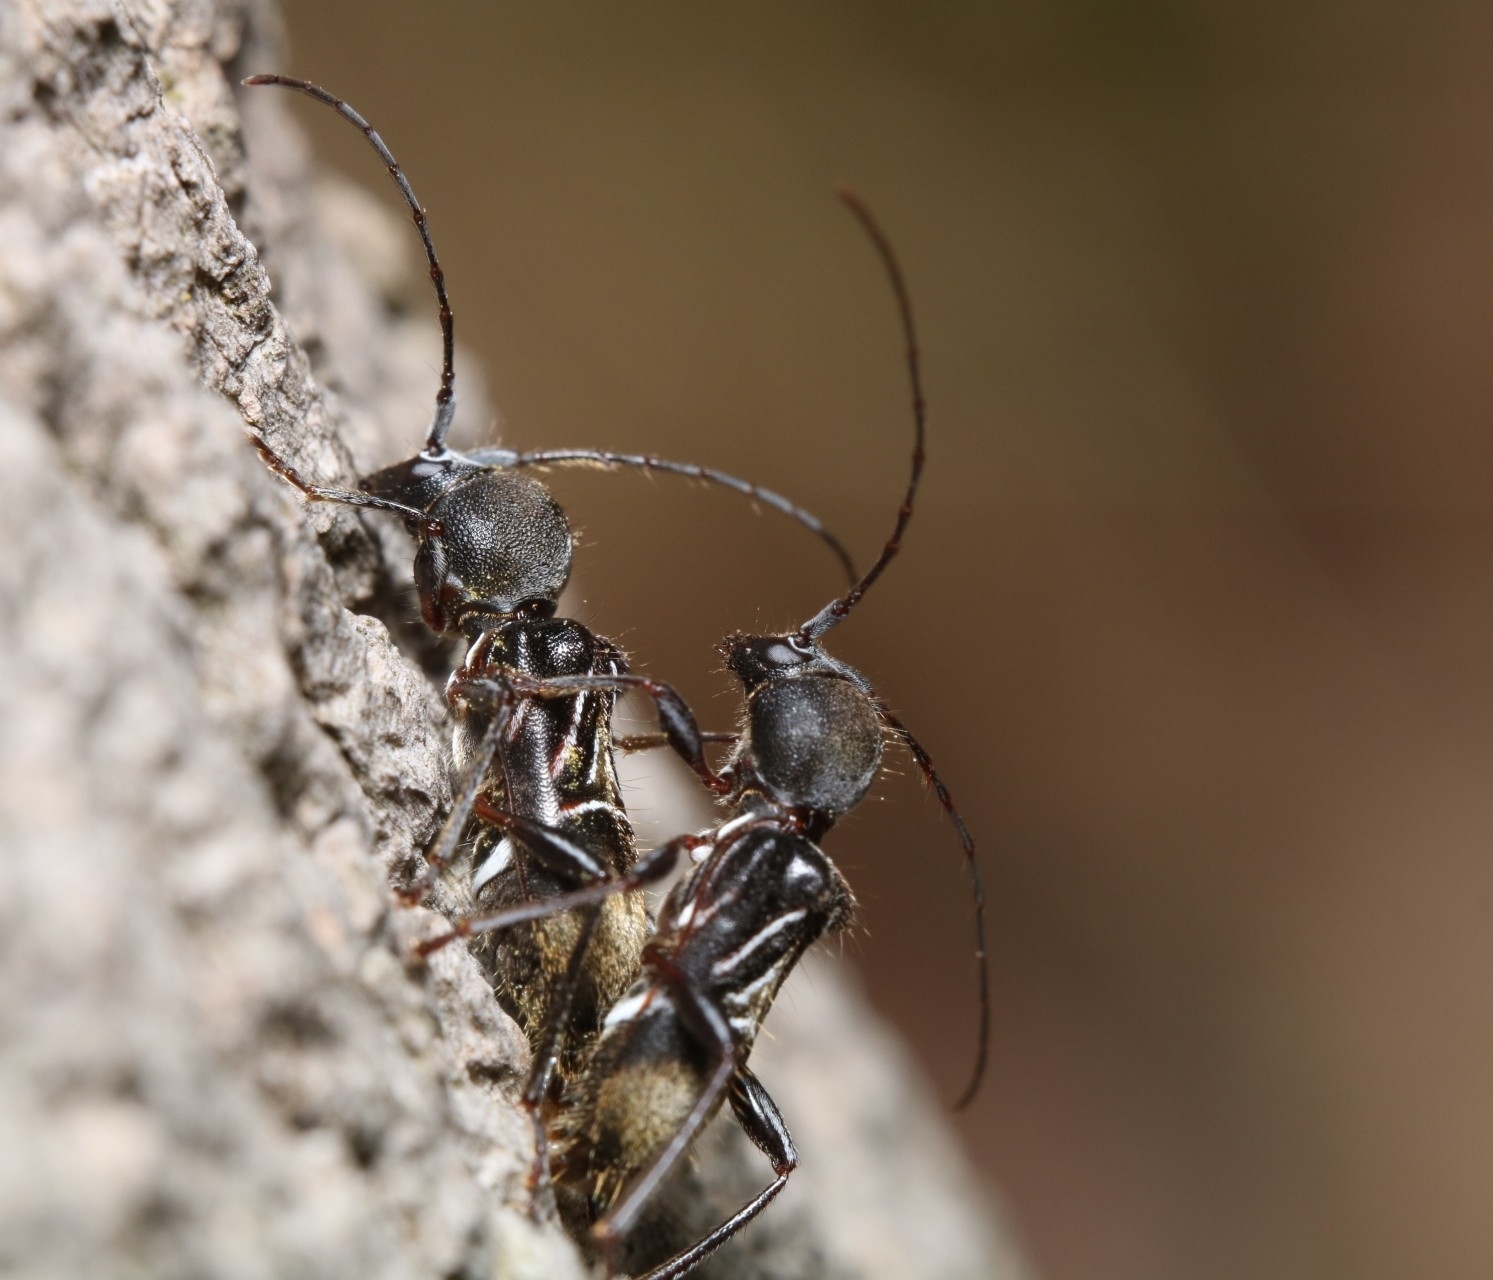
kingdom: Animalia
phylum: Arthropoda
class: Insecta
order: Coleoptera
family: Cerambycidae
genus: Cyrtophorus
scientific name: Cyrtophorus verrucosus
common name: Ant-like longhorn beetle
